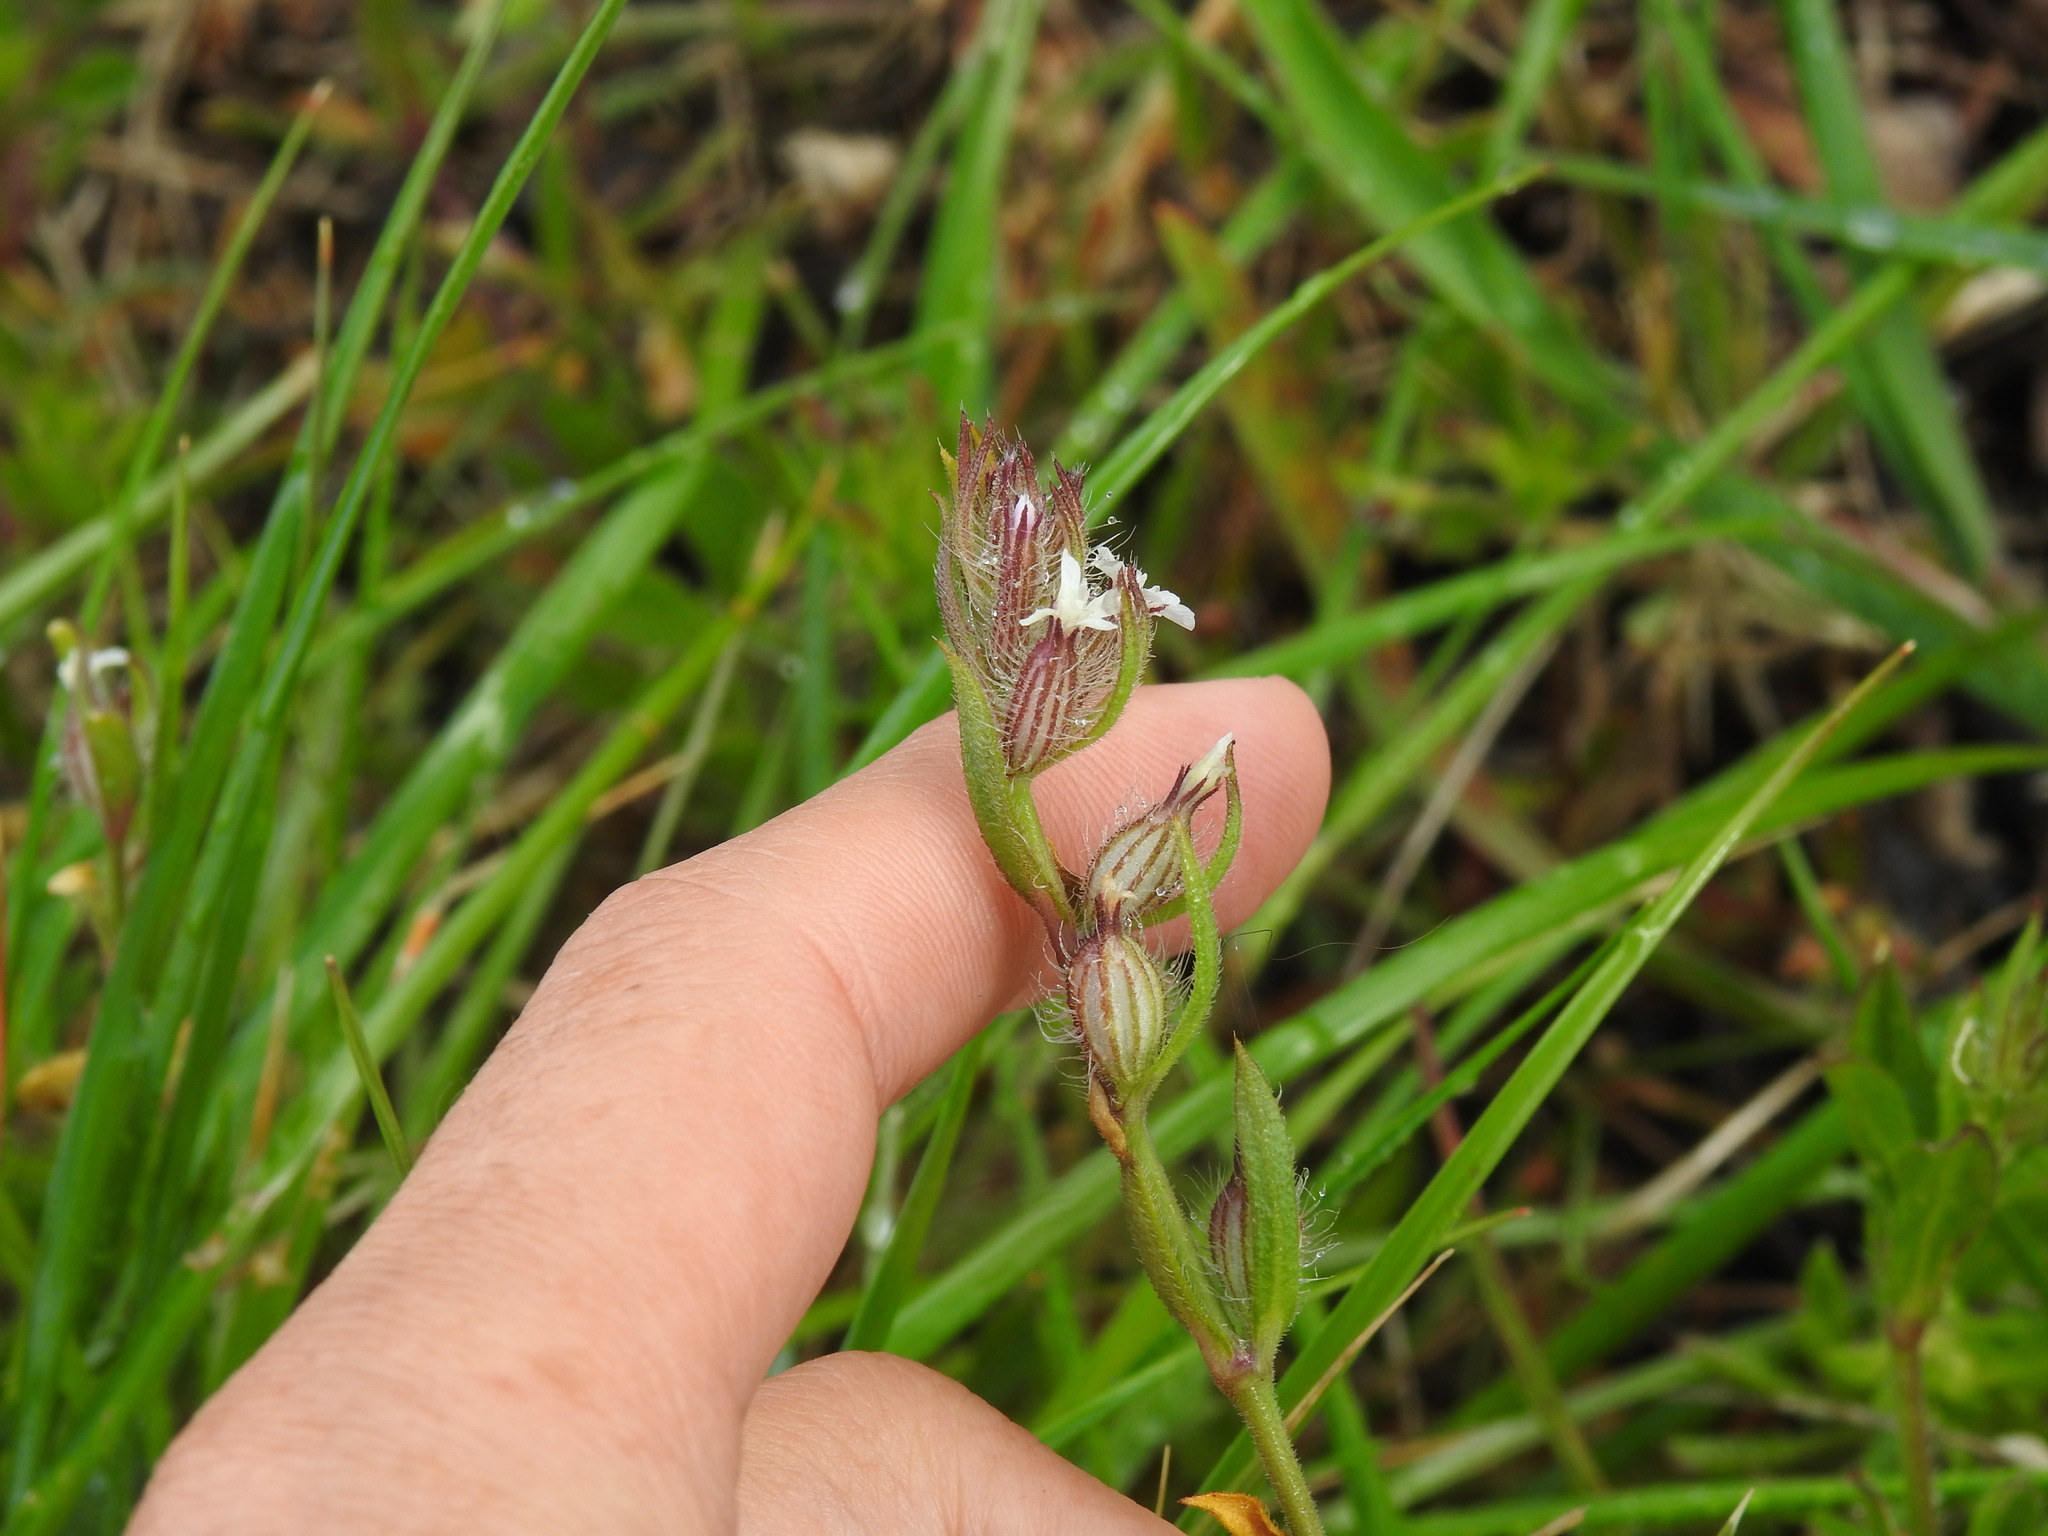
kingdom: Plantae
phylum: Tracheophyta
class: Magnoliopsida
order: Caryophyllales
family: Caryophyllaceae
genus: Silene
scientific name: Silene gallica
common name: Small-flowered catchfly
